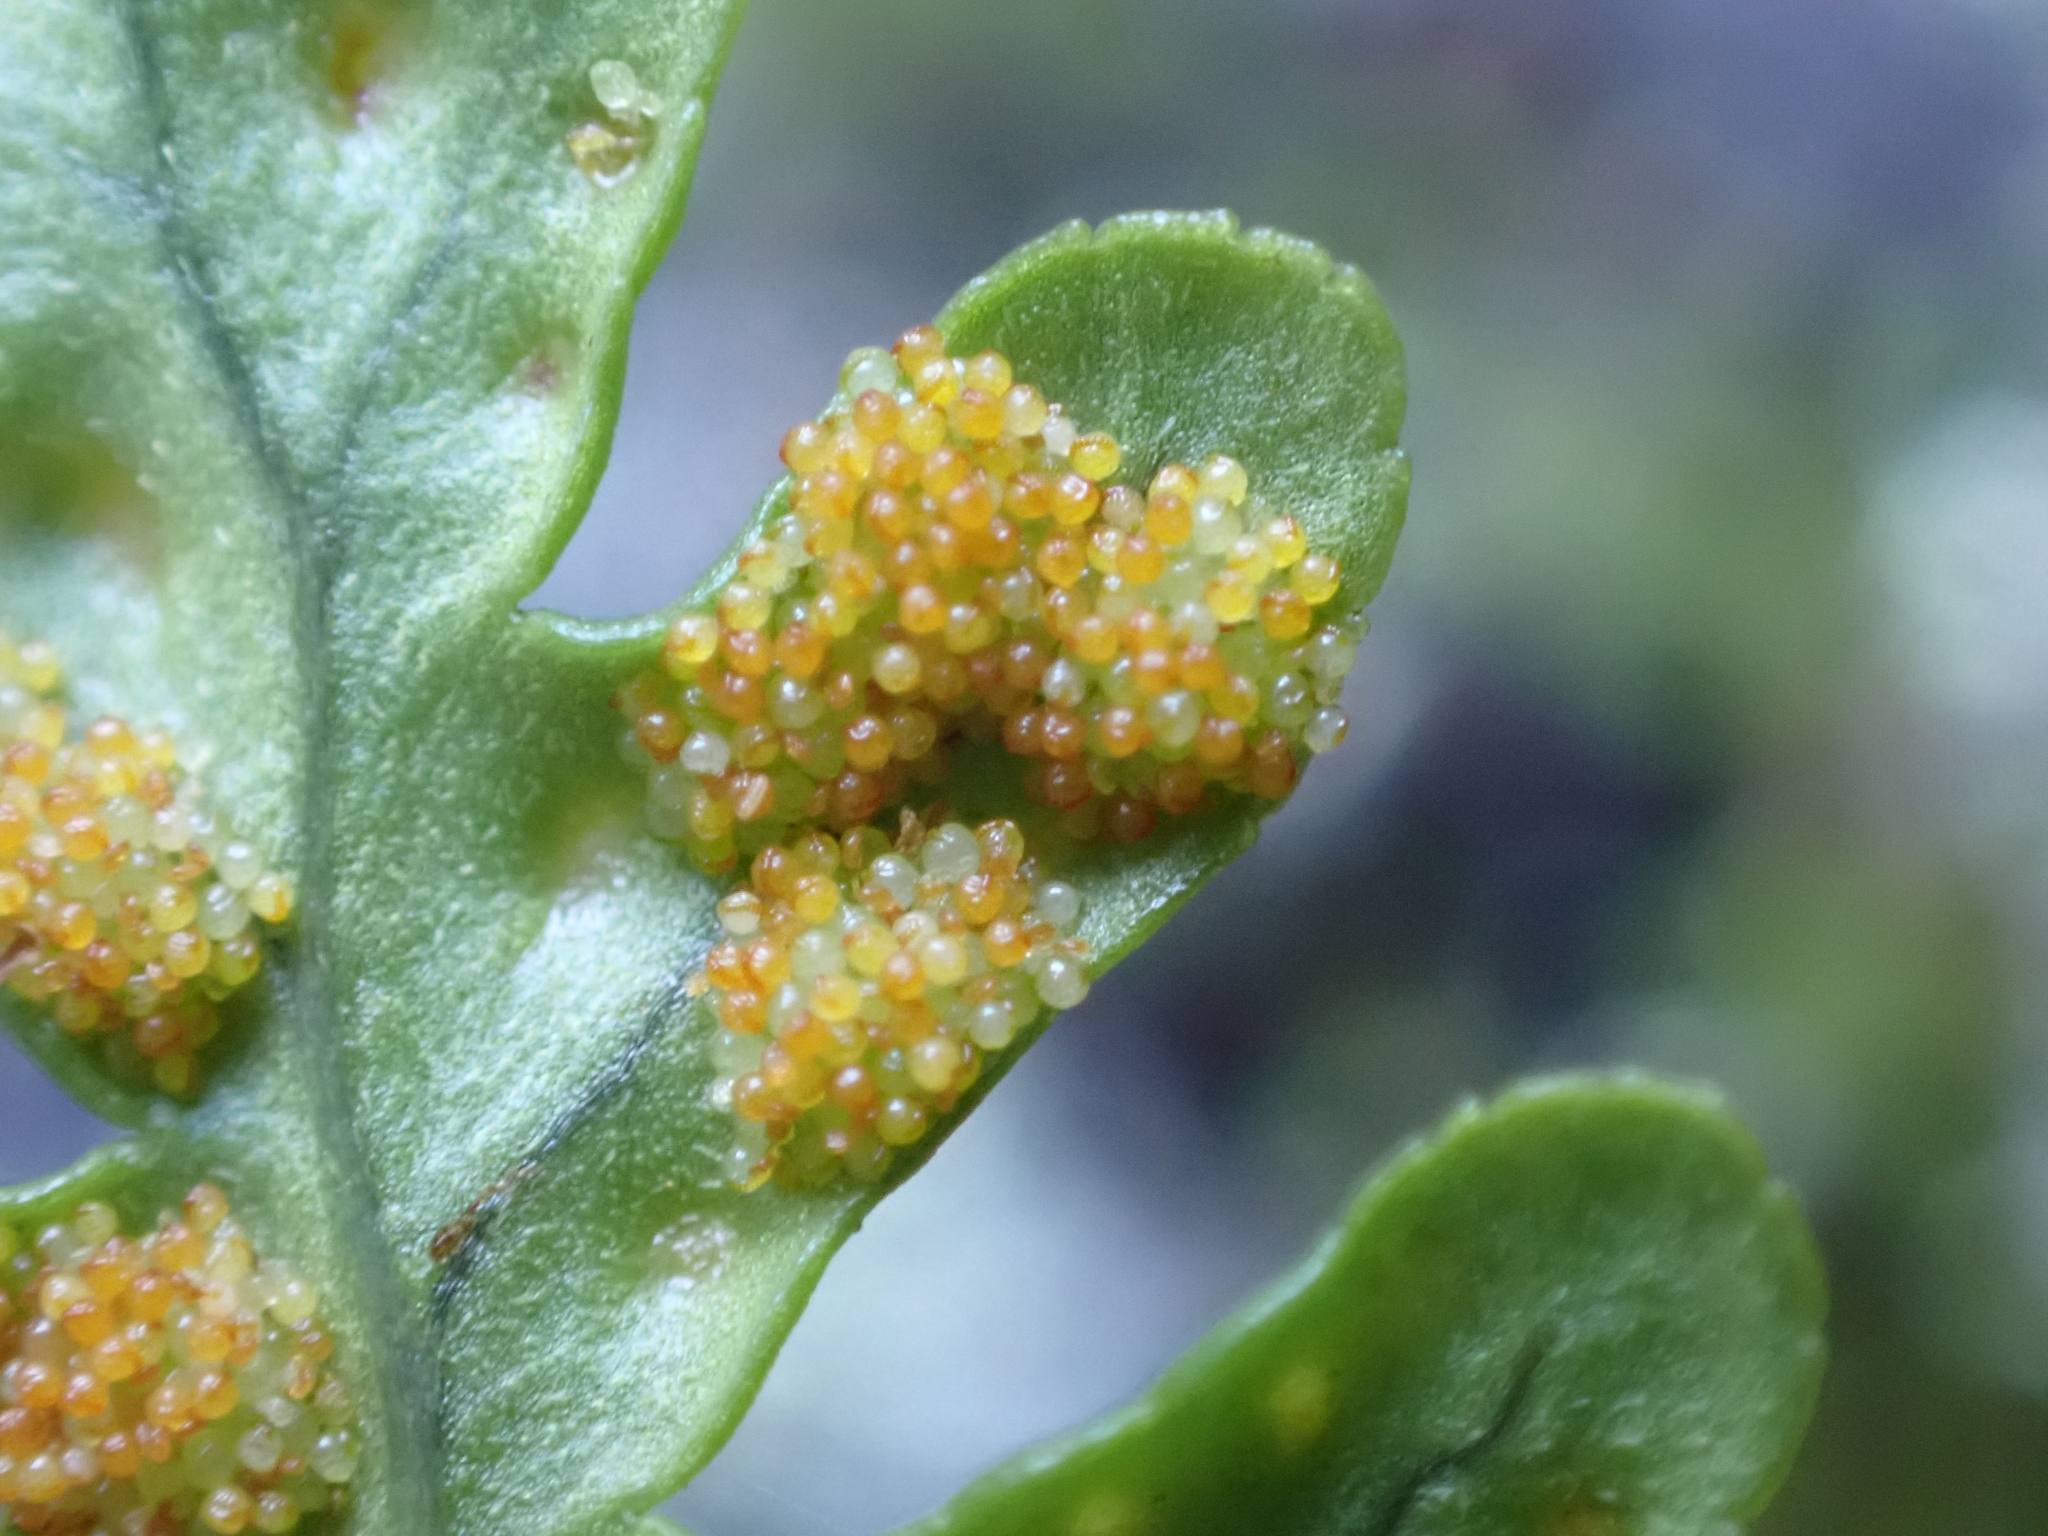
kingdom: Plantae
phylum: Tracheophyta
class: Polypodiopsida
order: Polypodiales
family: Polypodiaceae
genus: Polypodium
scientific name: Polypodium vulgare
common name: Common polypody
